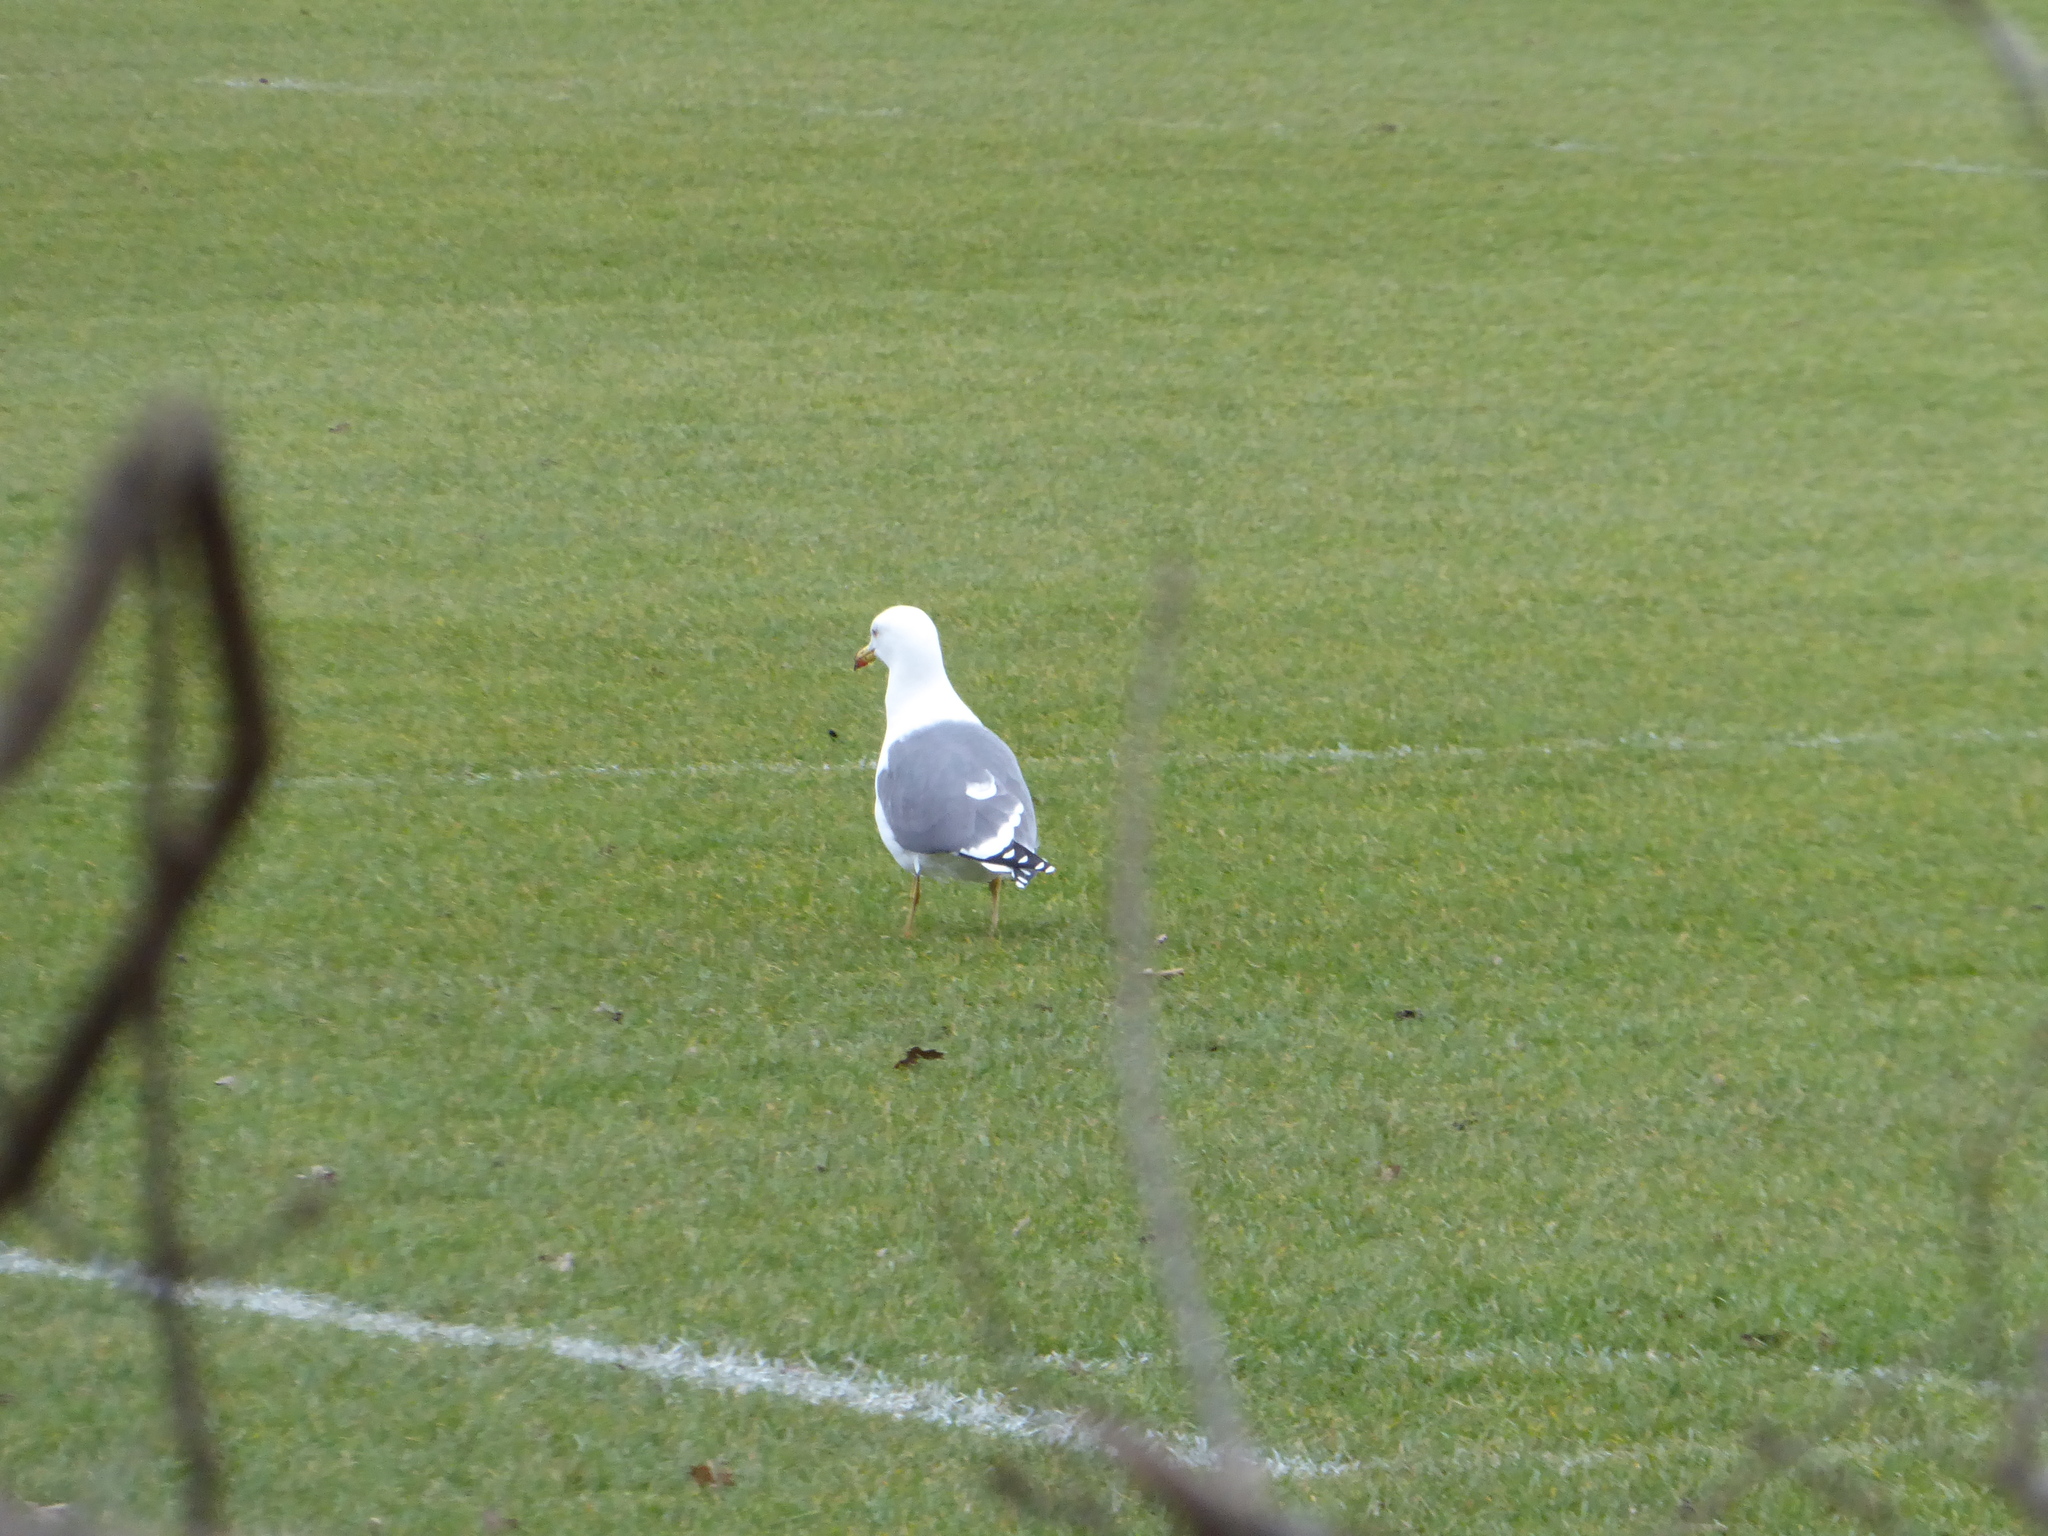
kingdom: Animalia
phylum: Chordata
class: Aves
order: Charadriiformes
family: Laridae
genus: Larus
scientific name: Larus argentatus
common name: Herring gull
